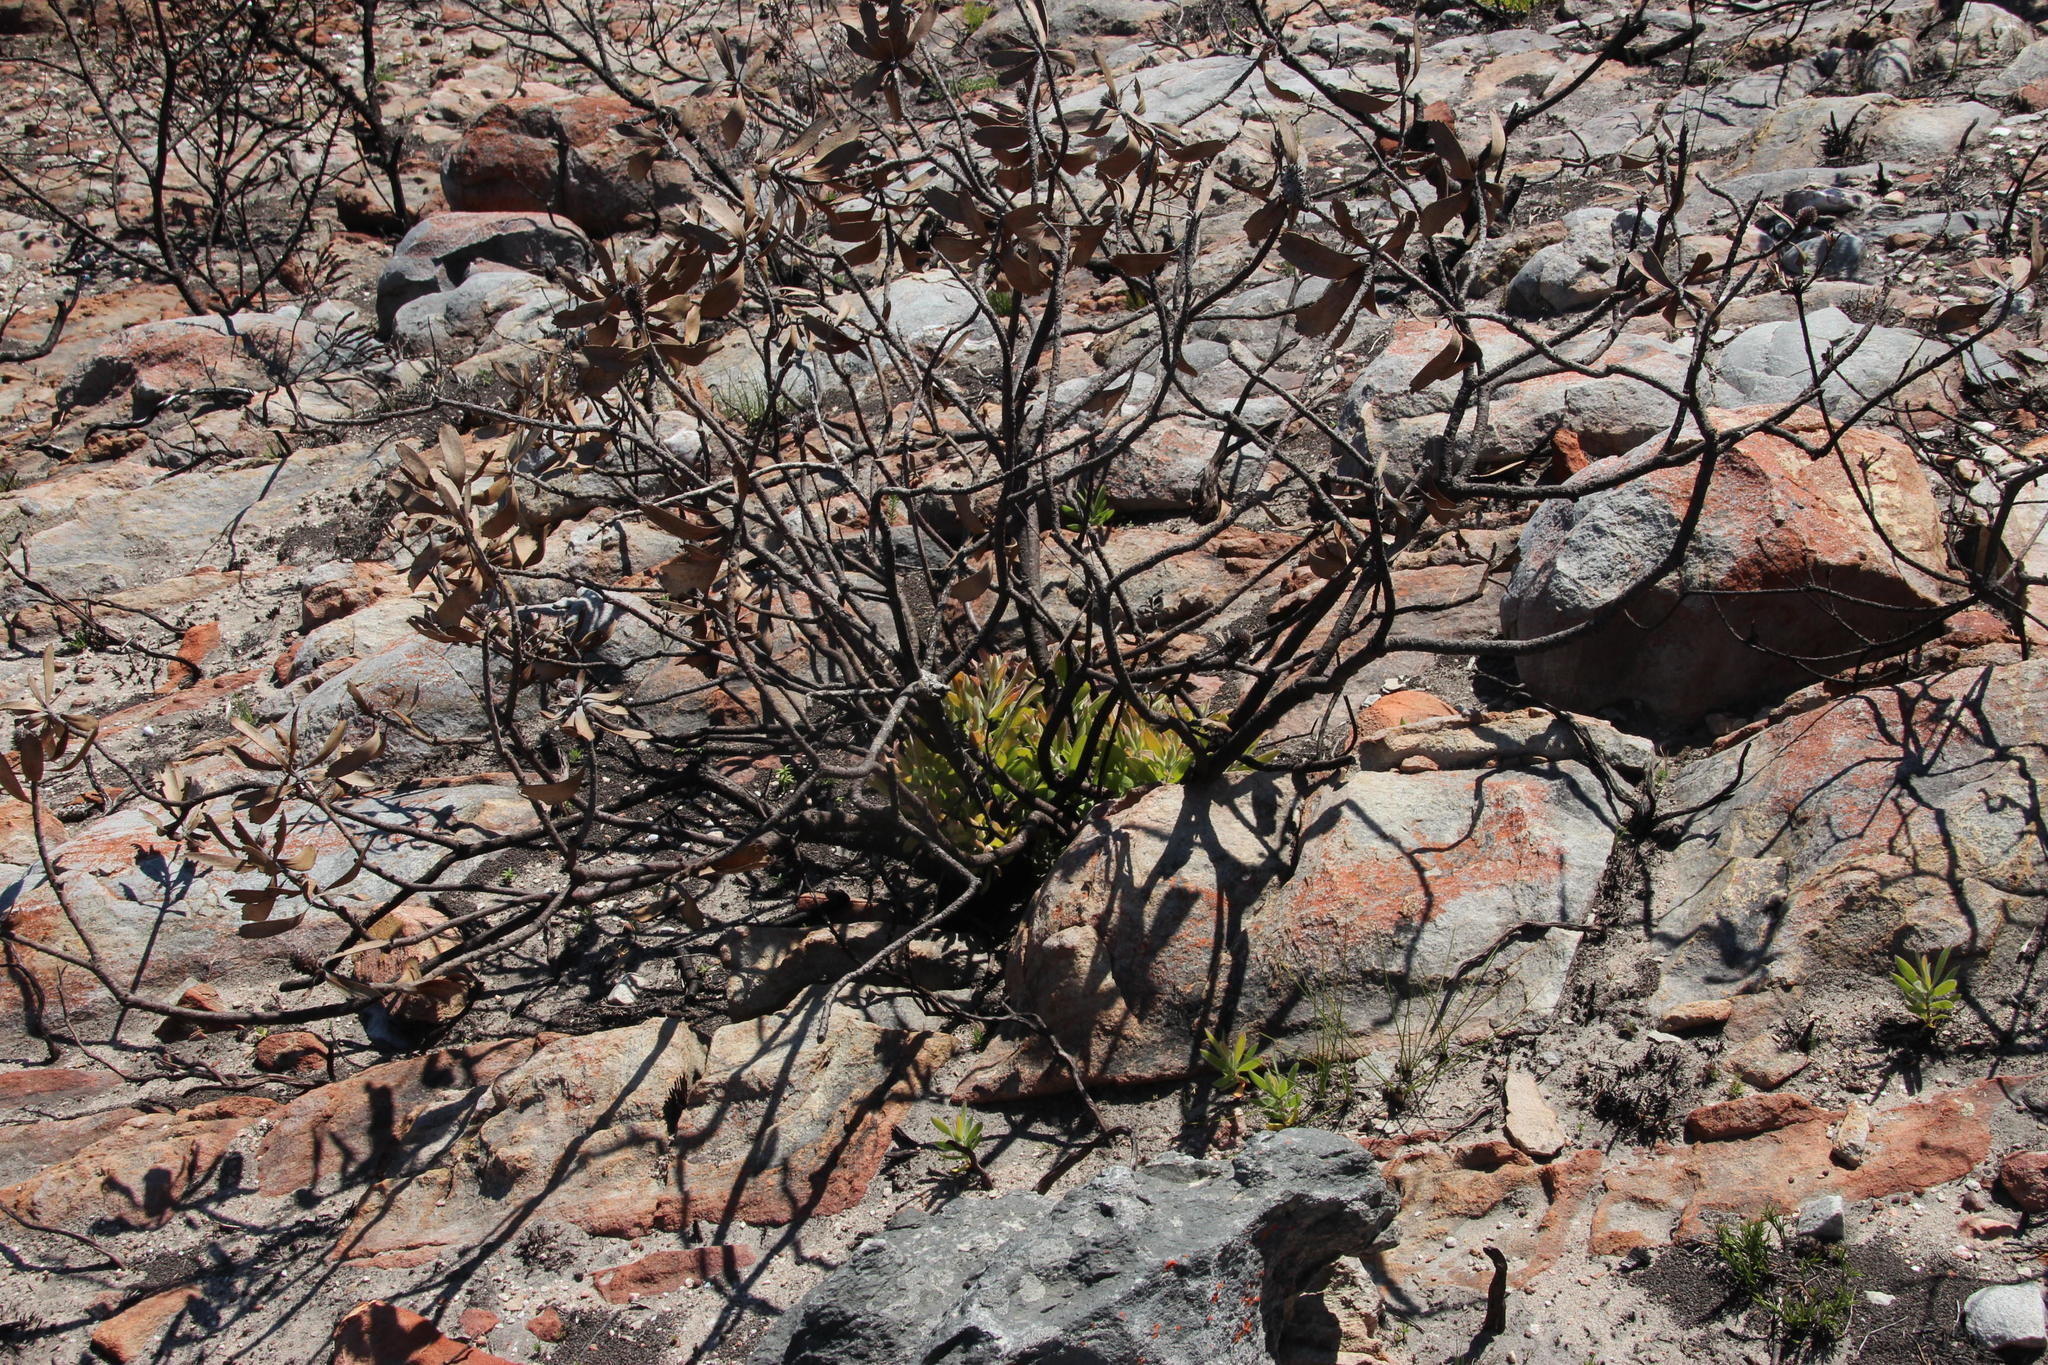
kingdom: Plantae
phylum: Tracheophyta
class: Magnoliopsida
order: Proteales
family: Proteaceae
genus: Leucospermum
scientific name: Leucospermum cuneiforme
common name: Common pincushion
